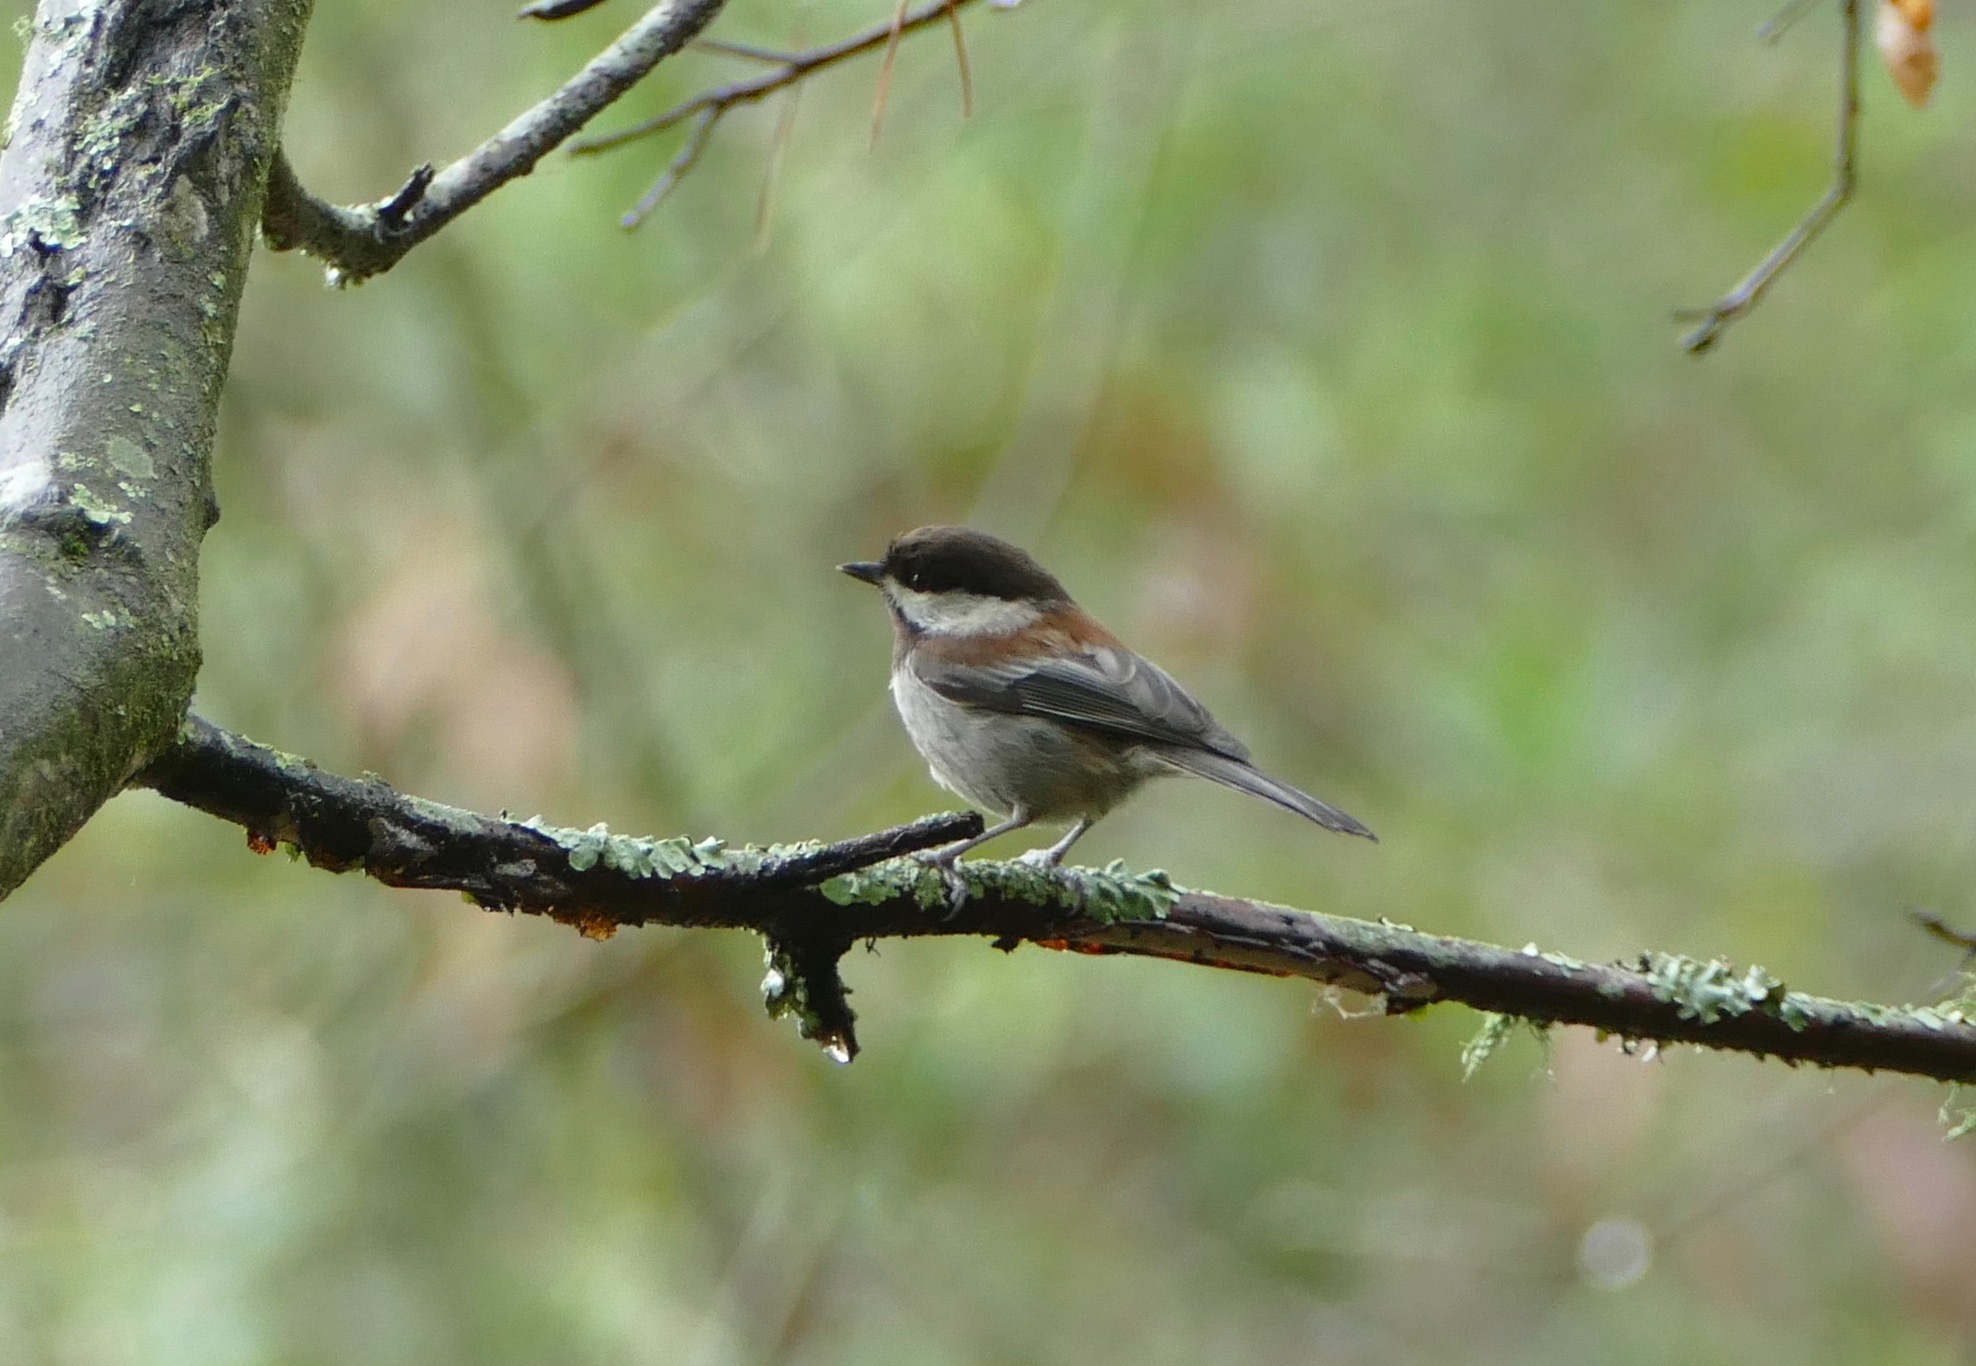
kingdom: Animalia
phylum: Chordata
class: Aves
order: Passeriformes
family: Paridae
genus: Poecile
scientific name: Poecile rufescens
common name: Chestnut-backed chickadee
